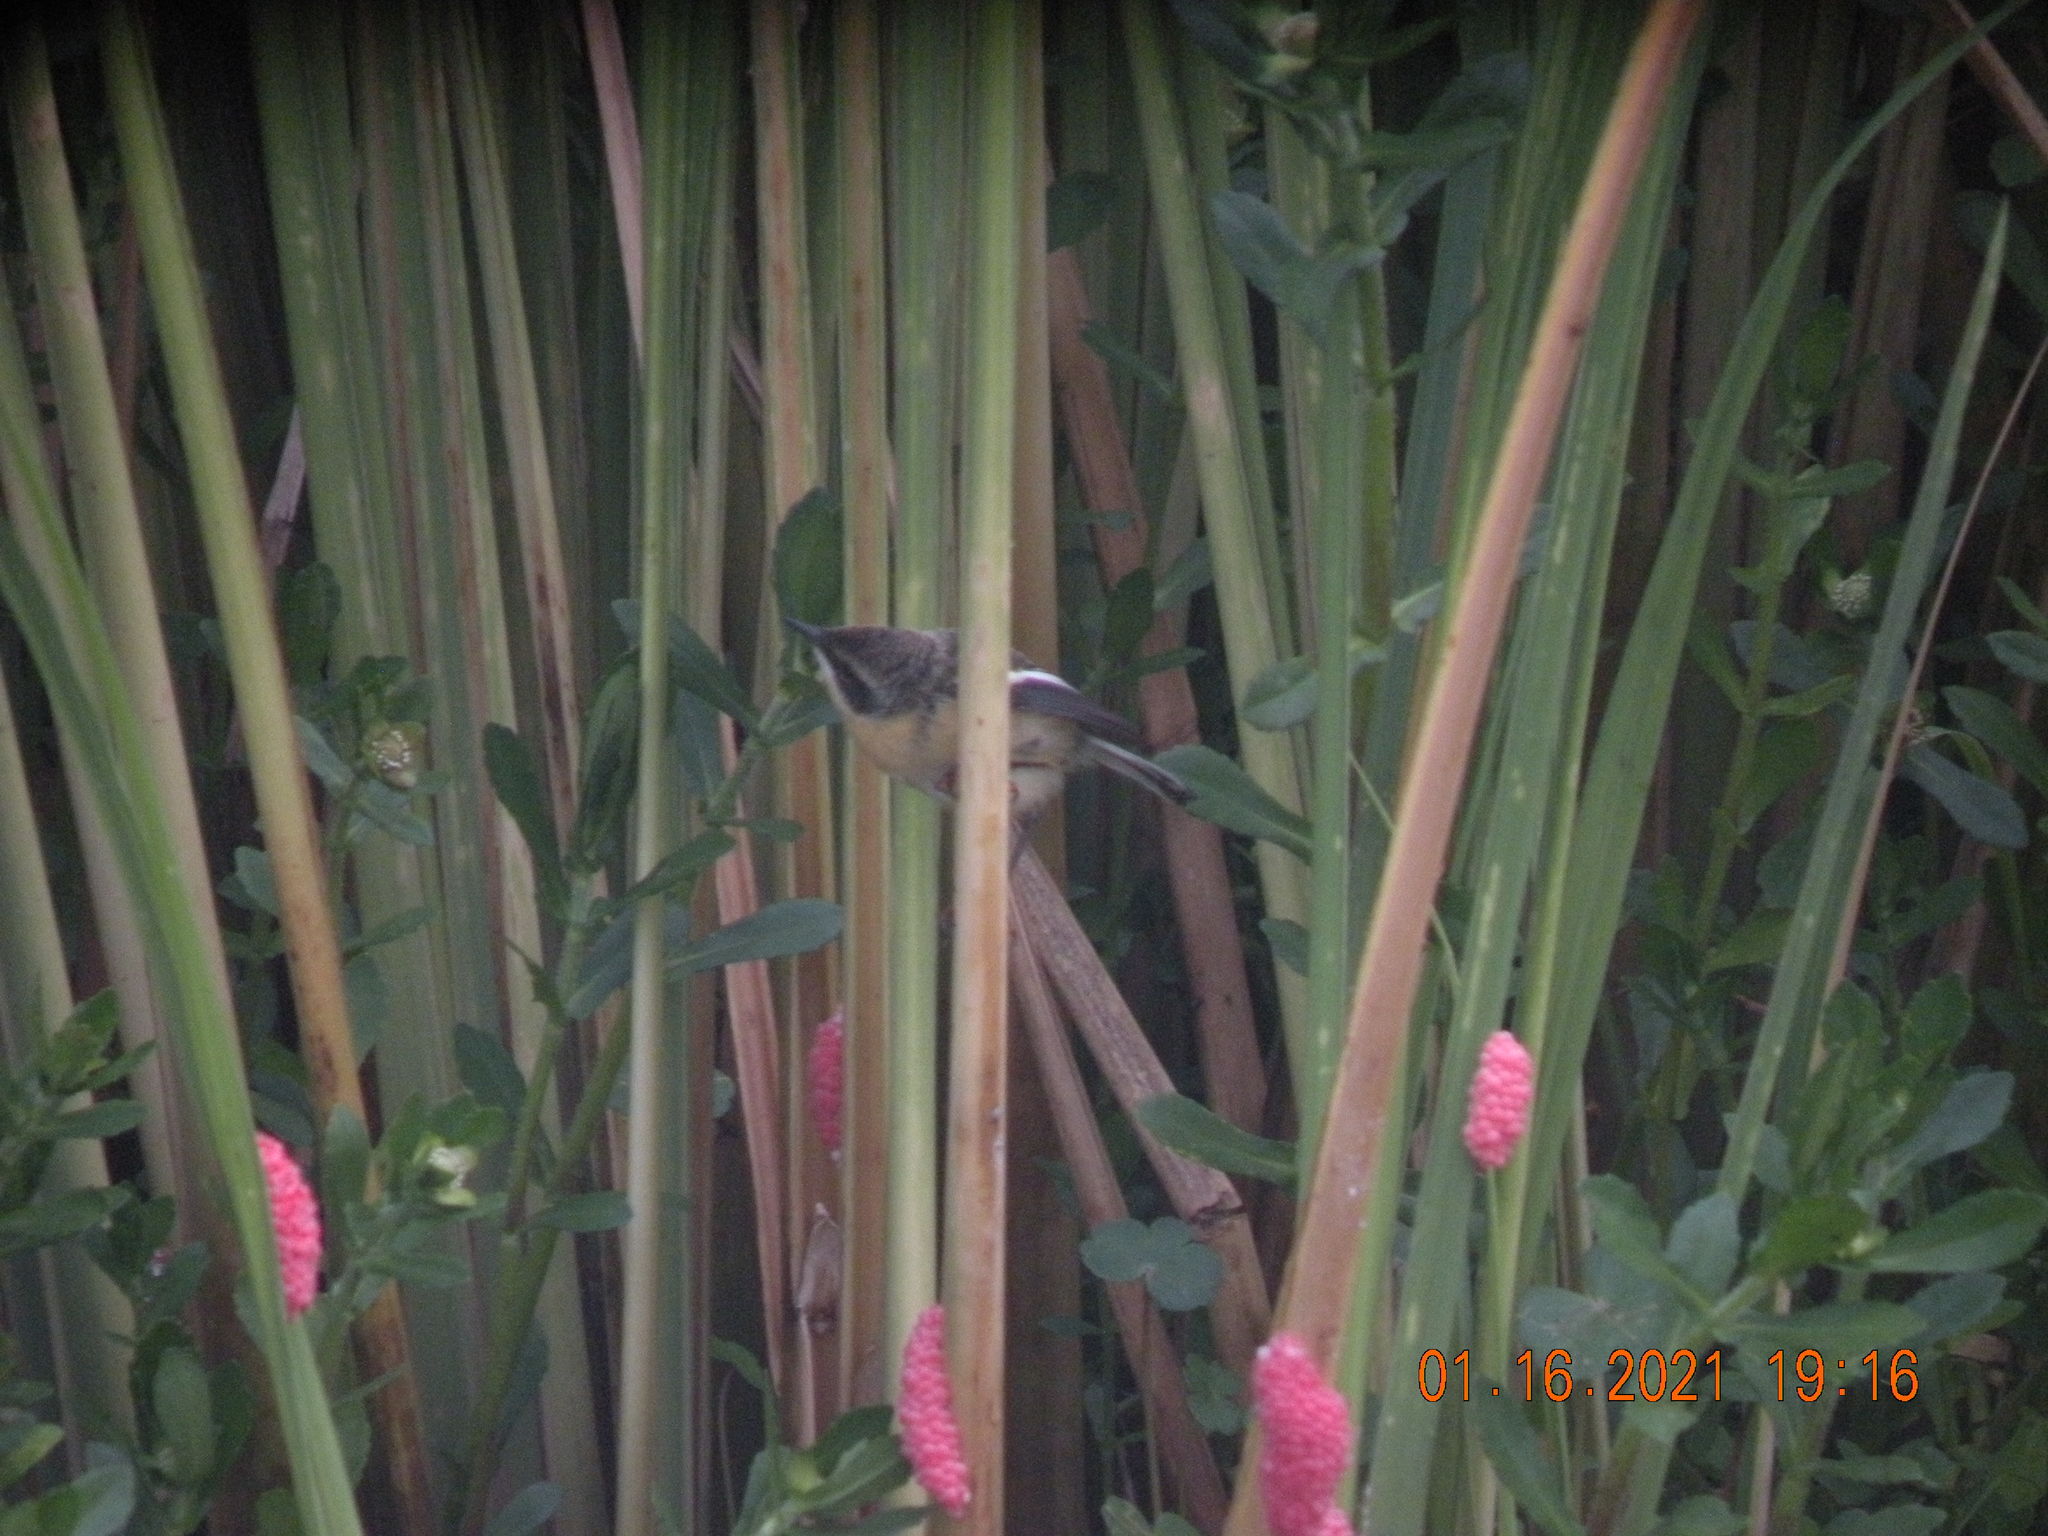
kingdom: Animalia
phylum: Chordata
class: Aves
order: Passeriformes
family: Tyrannidae
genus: Tachuris
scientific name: Tachuris rubrigastra
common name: Many-colored rush tyrant
